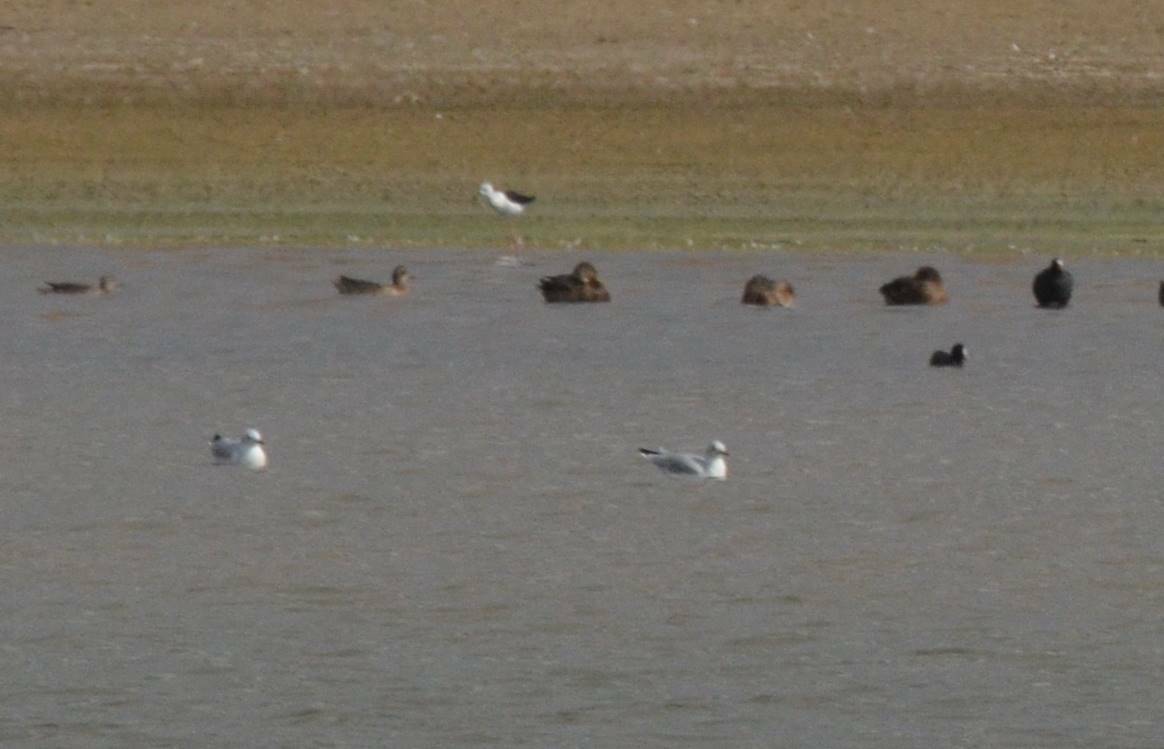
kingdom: Animalia
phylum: Chordata
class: Aves
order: Charadriiformes
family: Laridae
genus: Chroicocephalus
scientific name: Chroicocephalus ridibundus
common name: Black-headed gull
